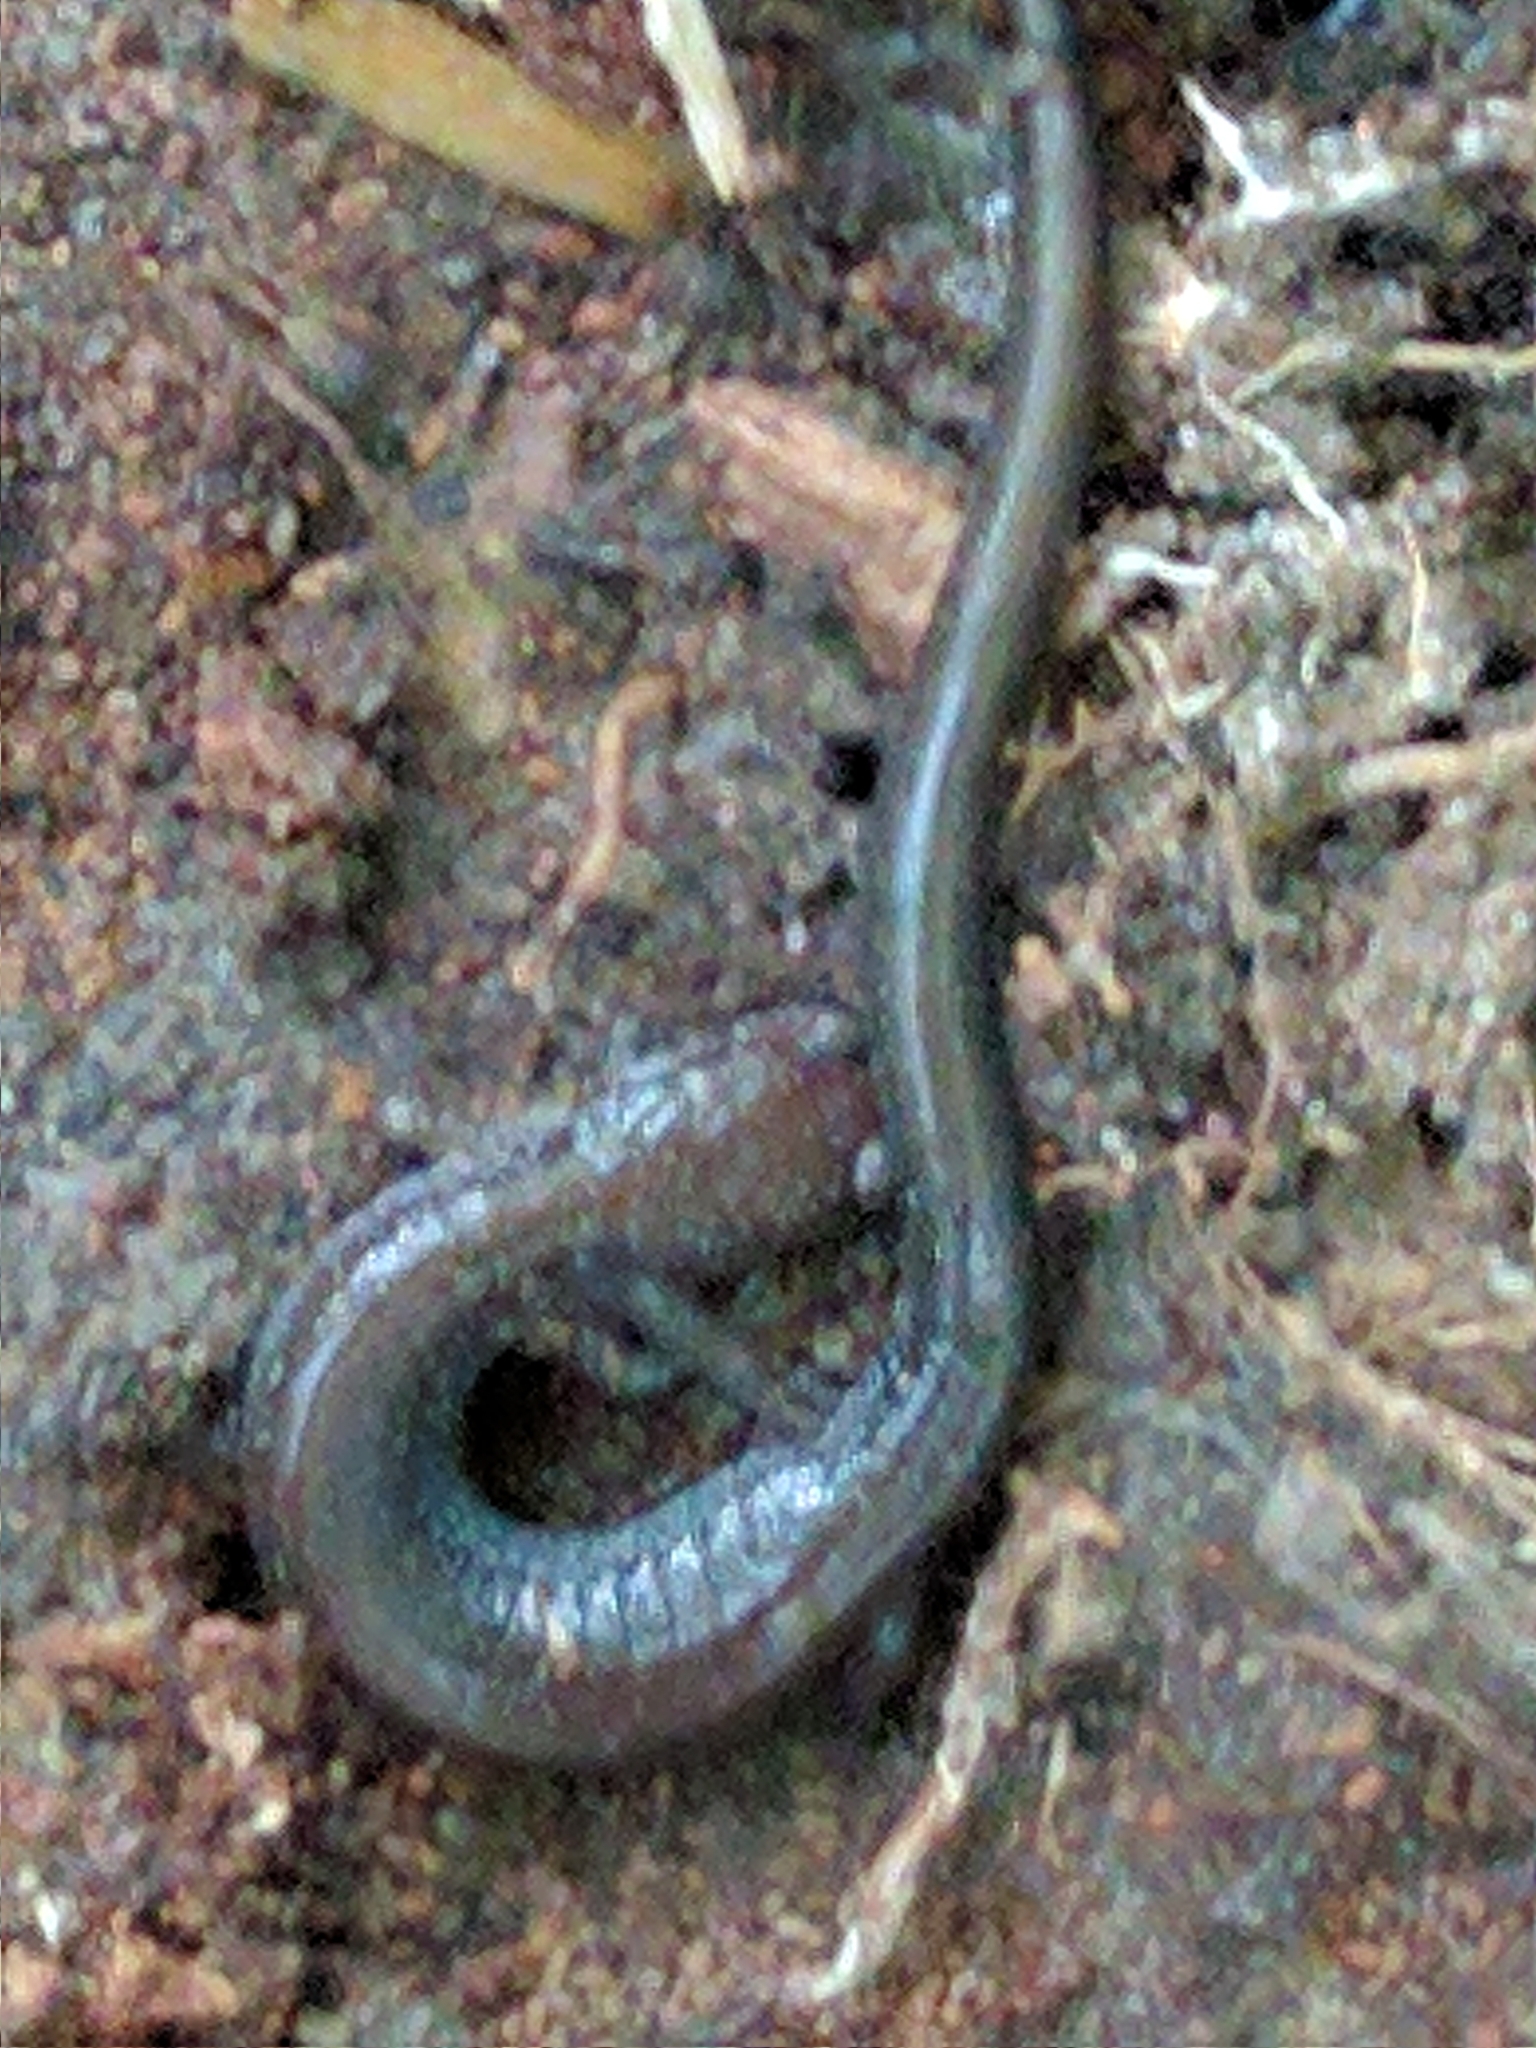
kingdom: Animalia
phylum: Chordata
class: Amphibia
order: Caudata
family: Plethodontidae
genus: Plethodon
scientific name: Plethodon cinereus
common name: Redback salamander
